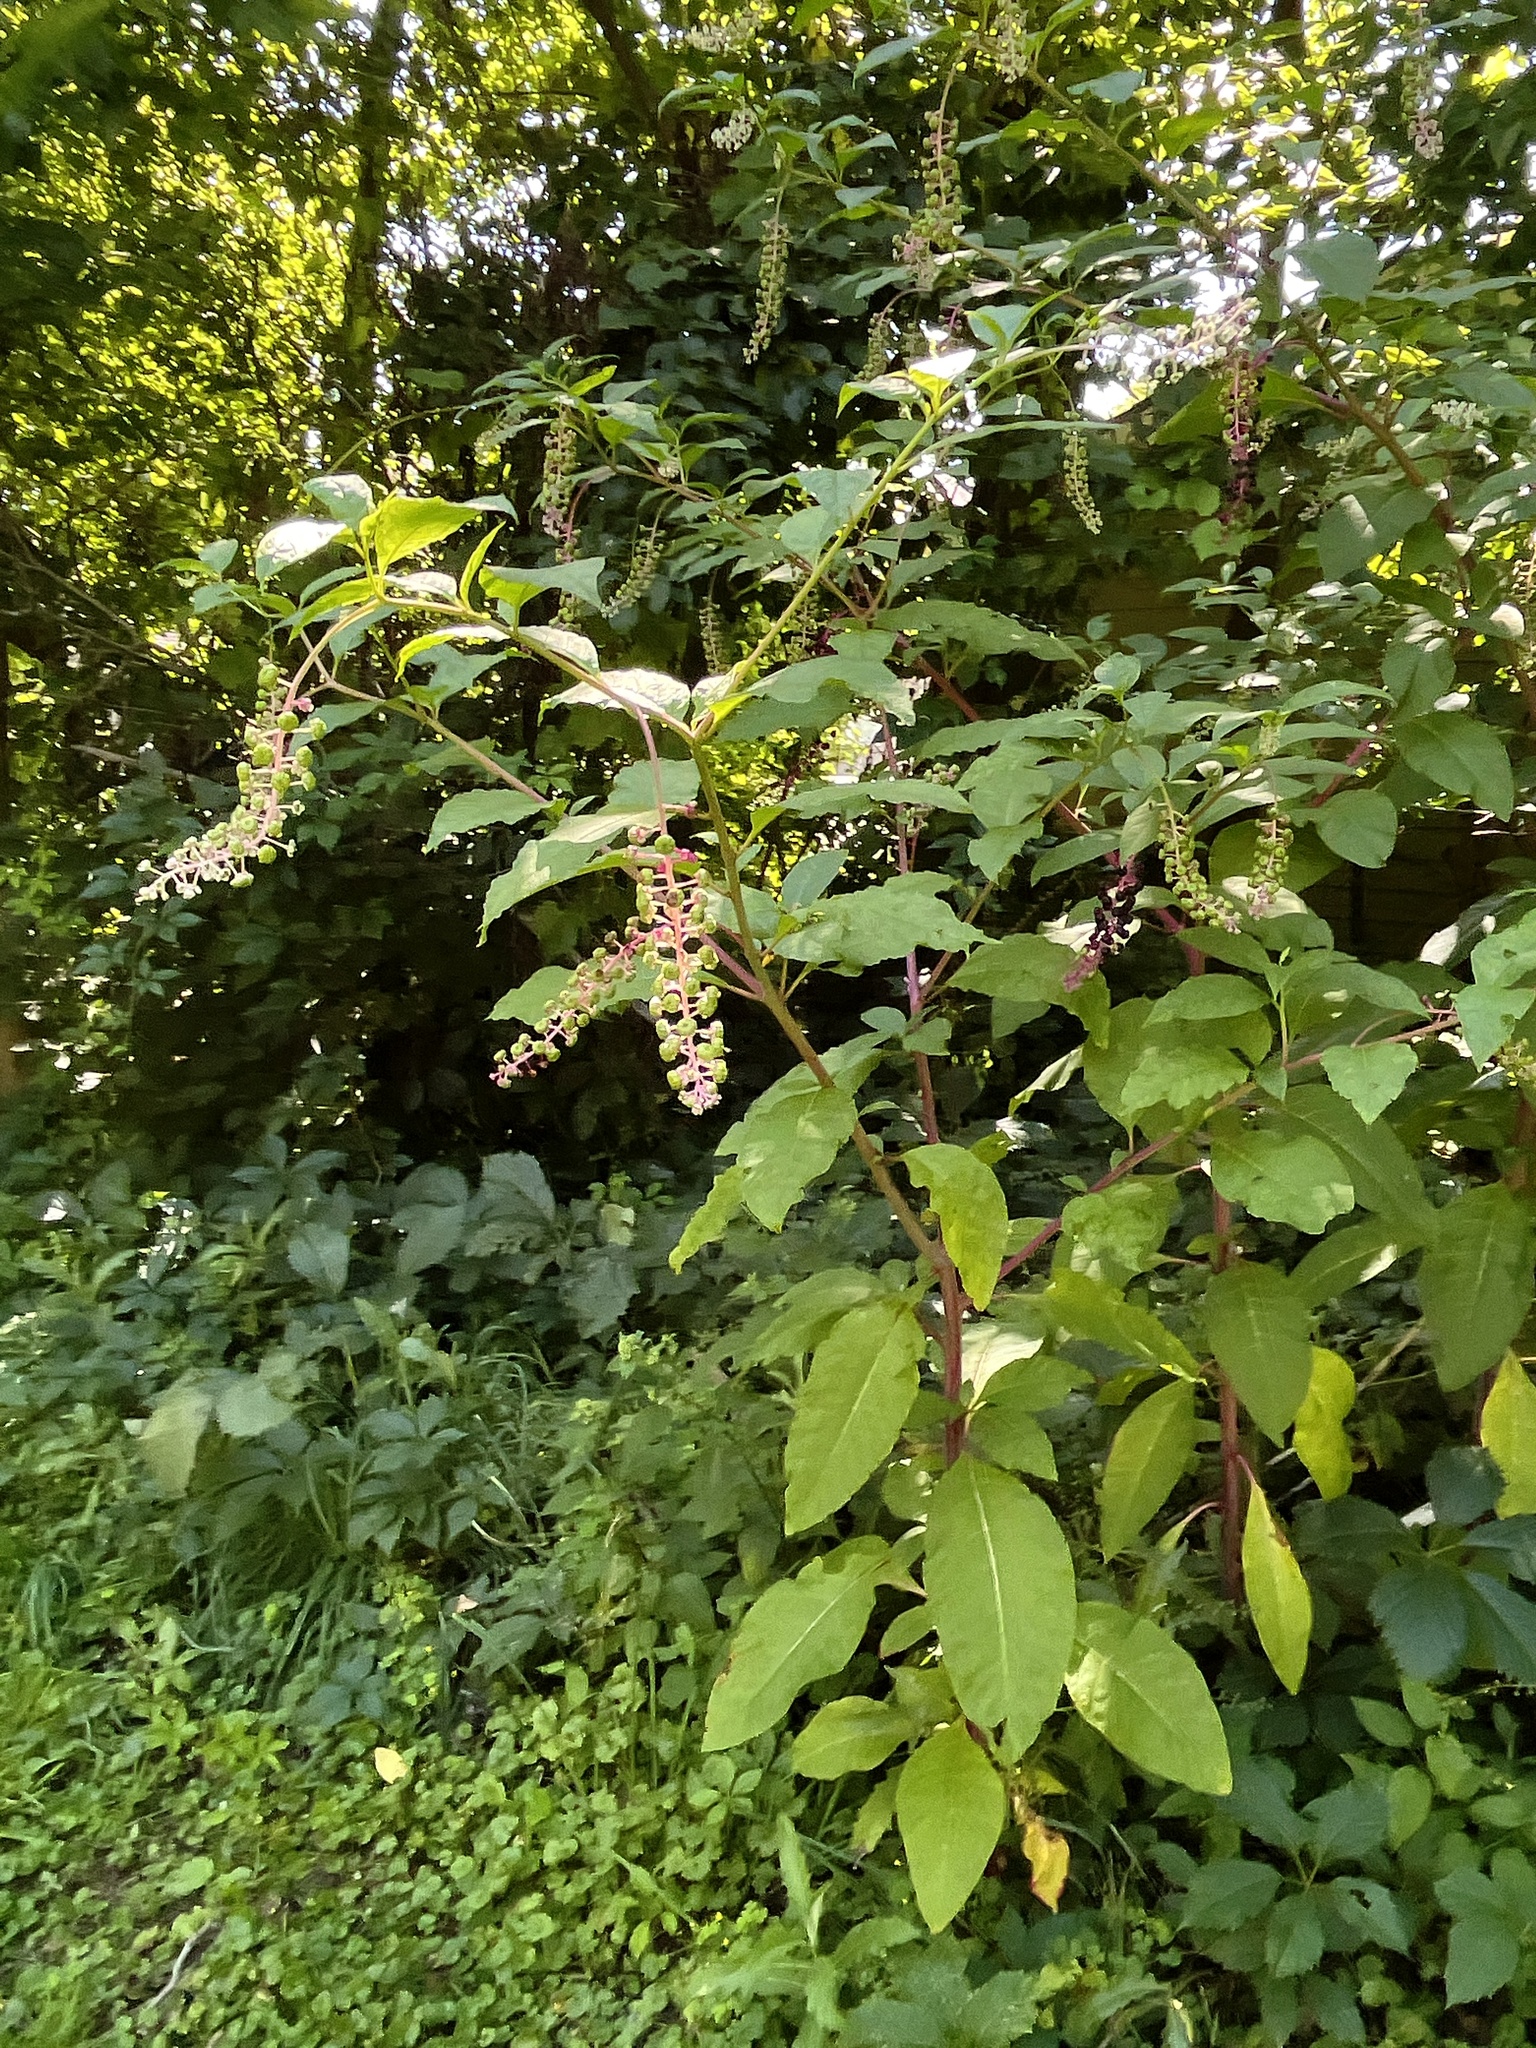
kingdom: Plantae
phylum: Tracheophyta
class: Magnoliopsida
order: Caryophyllales
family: Phytolaccaceae
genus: Phytolacca
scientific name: Phytolacca americana
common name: American pokeweed
